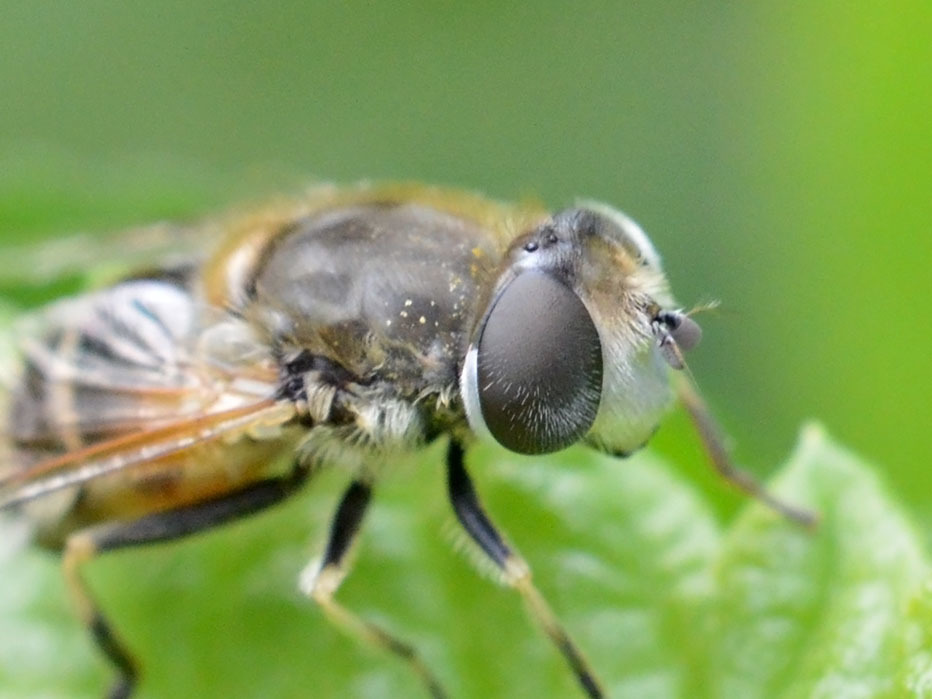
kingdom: Animalia
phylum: Arthropoda
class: Insecta
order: Diptera
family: Syrphidae
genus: Eristalis
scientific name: Eristalis arbustorum
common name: Hover fly
